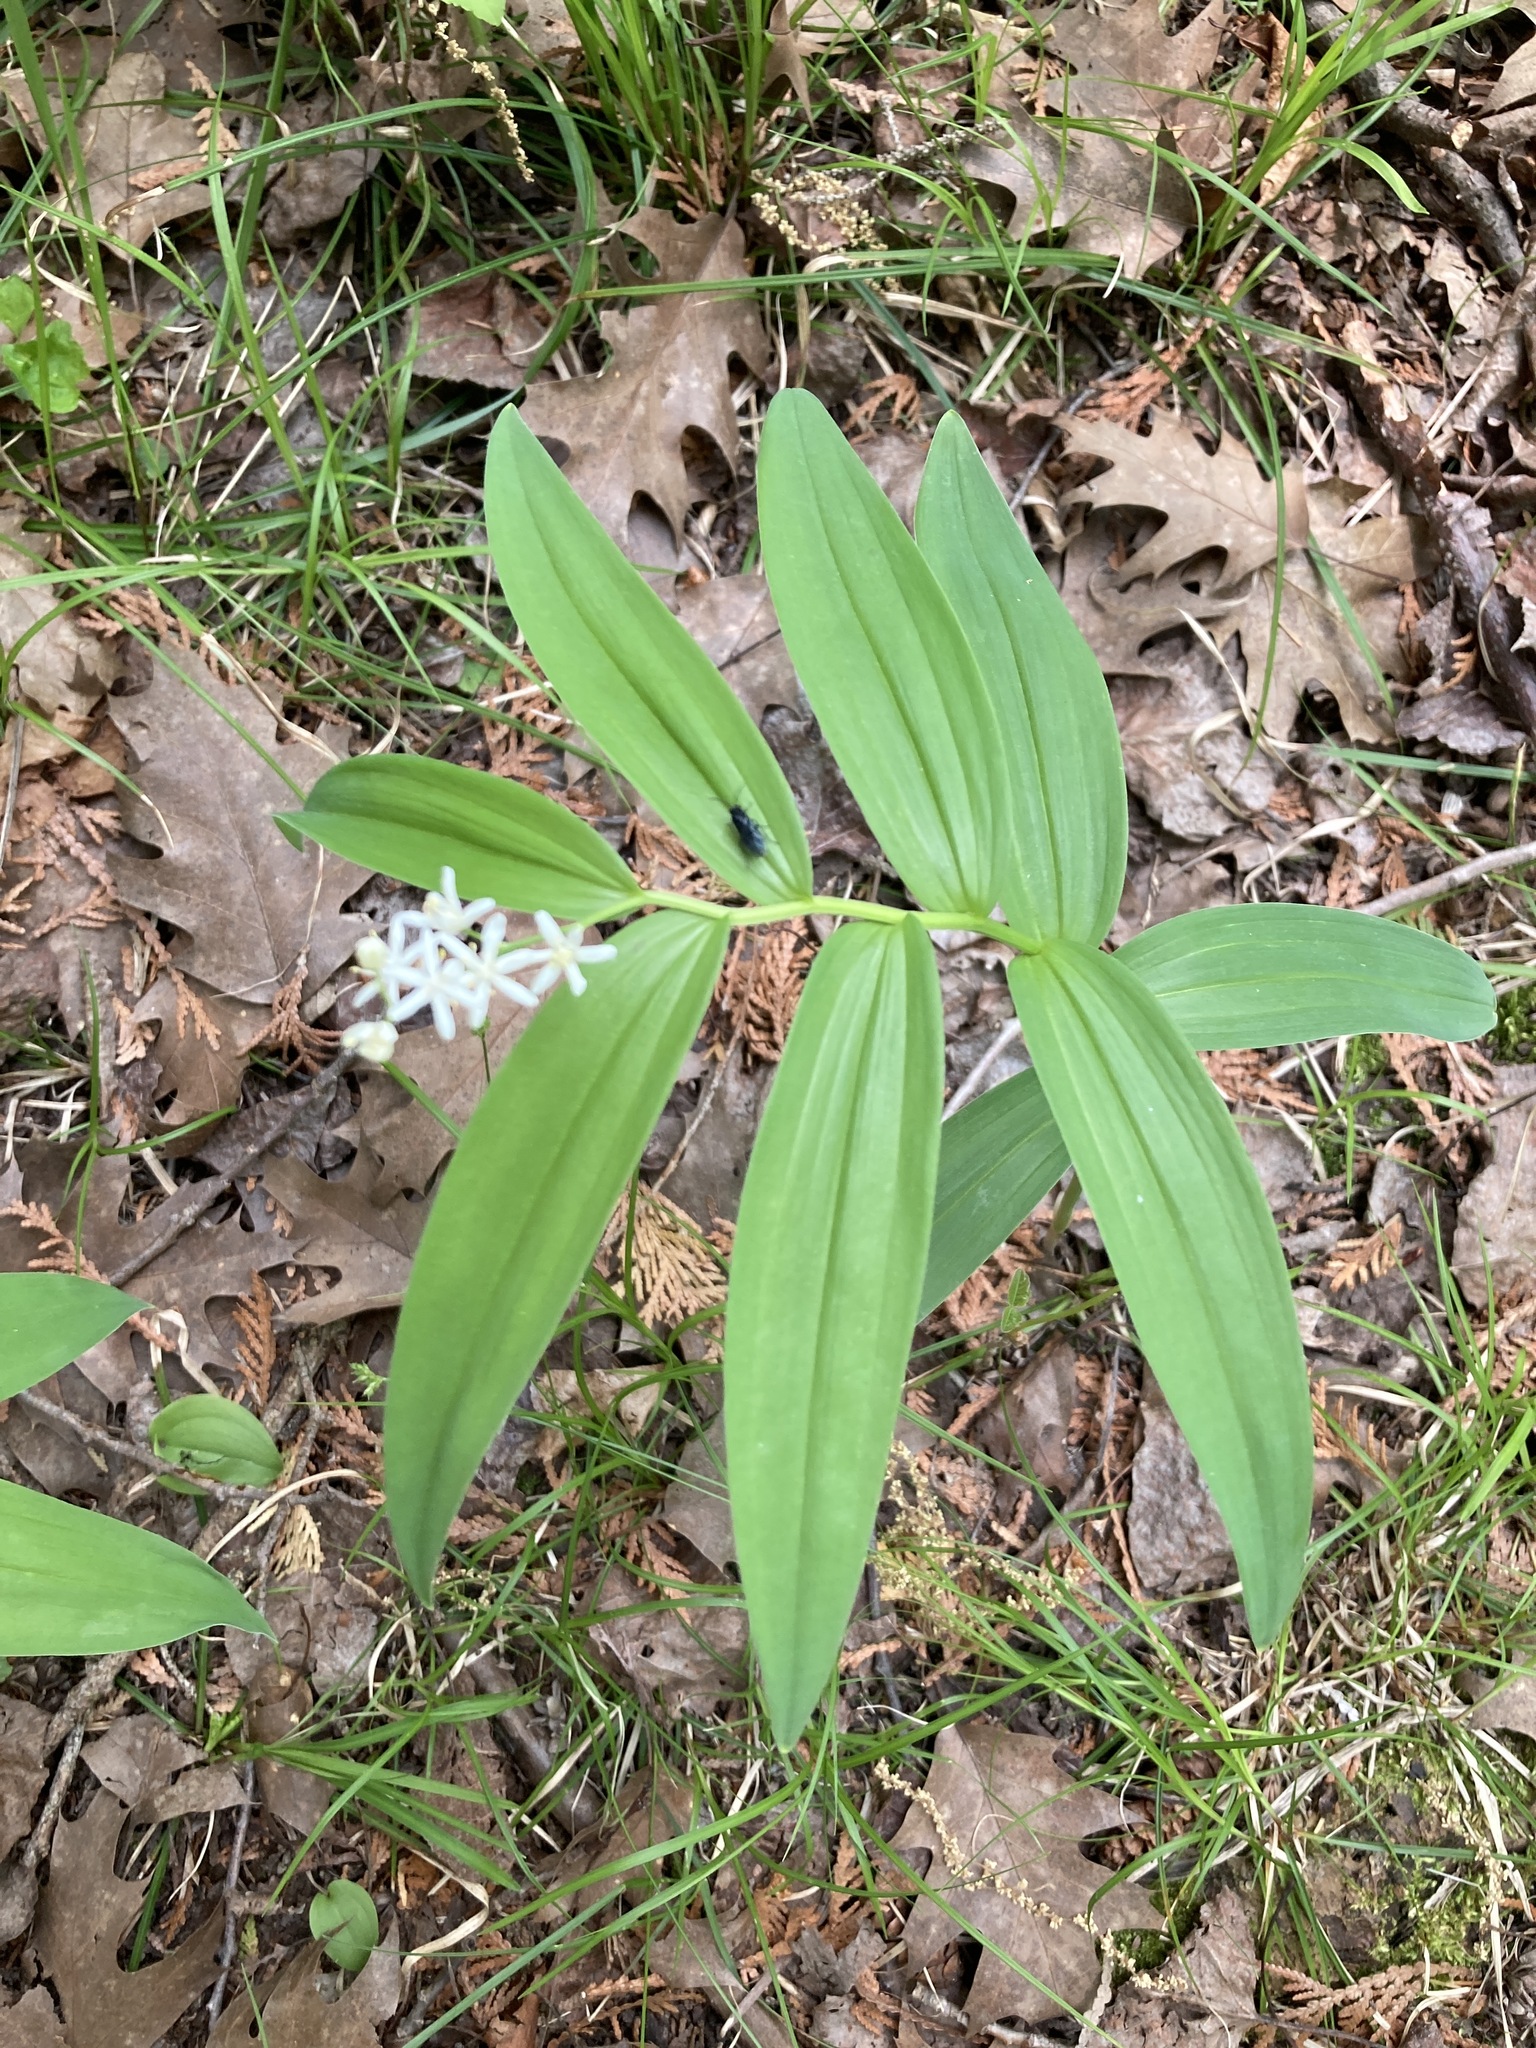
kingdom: Plantae
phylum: Tracheophyta
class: Liliopsida
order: Asparagales
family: Asparagaceae
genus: Maianthemum
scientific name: Maianthemum stellatum
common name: Little false solomon's seal
